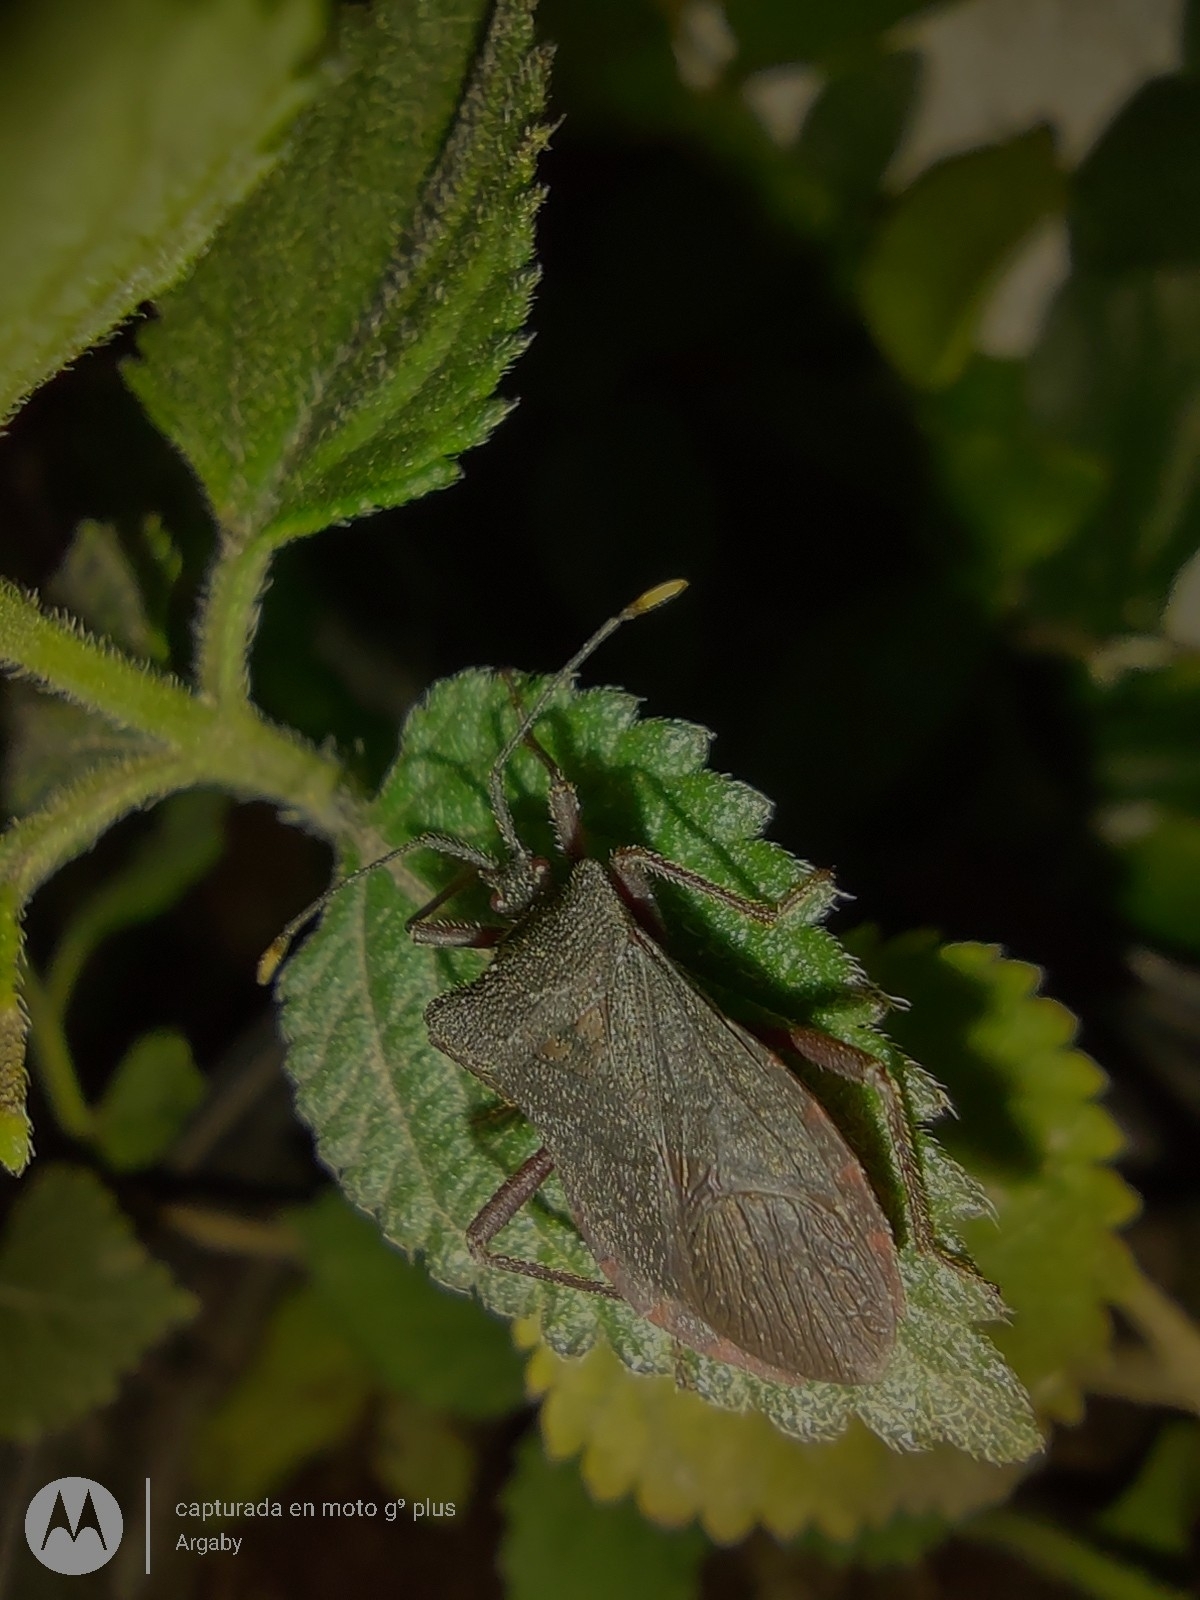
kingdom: Animalia
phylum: Arthropoda
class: Insecta
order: Hemiptera
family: Coreidae
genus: Anasa
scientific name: Anasa apicalis
